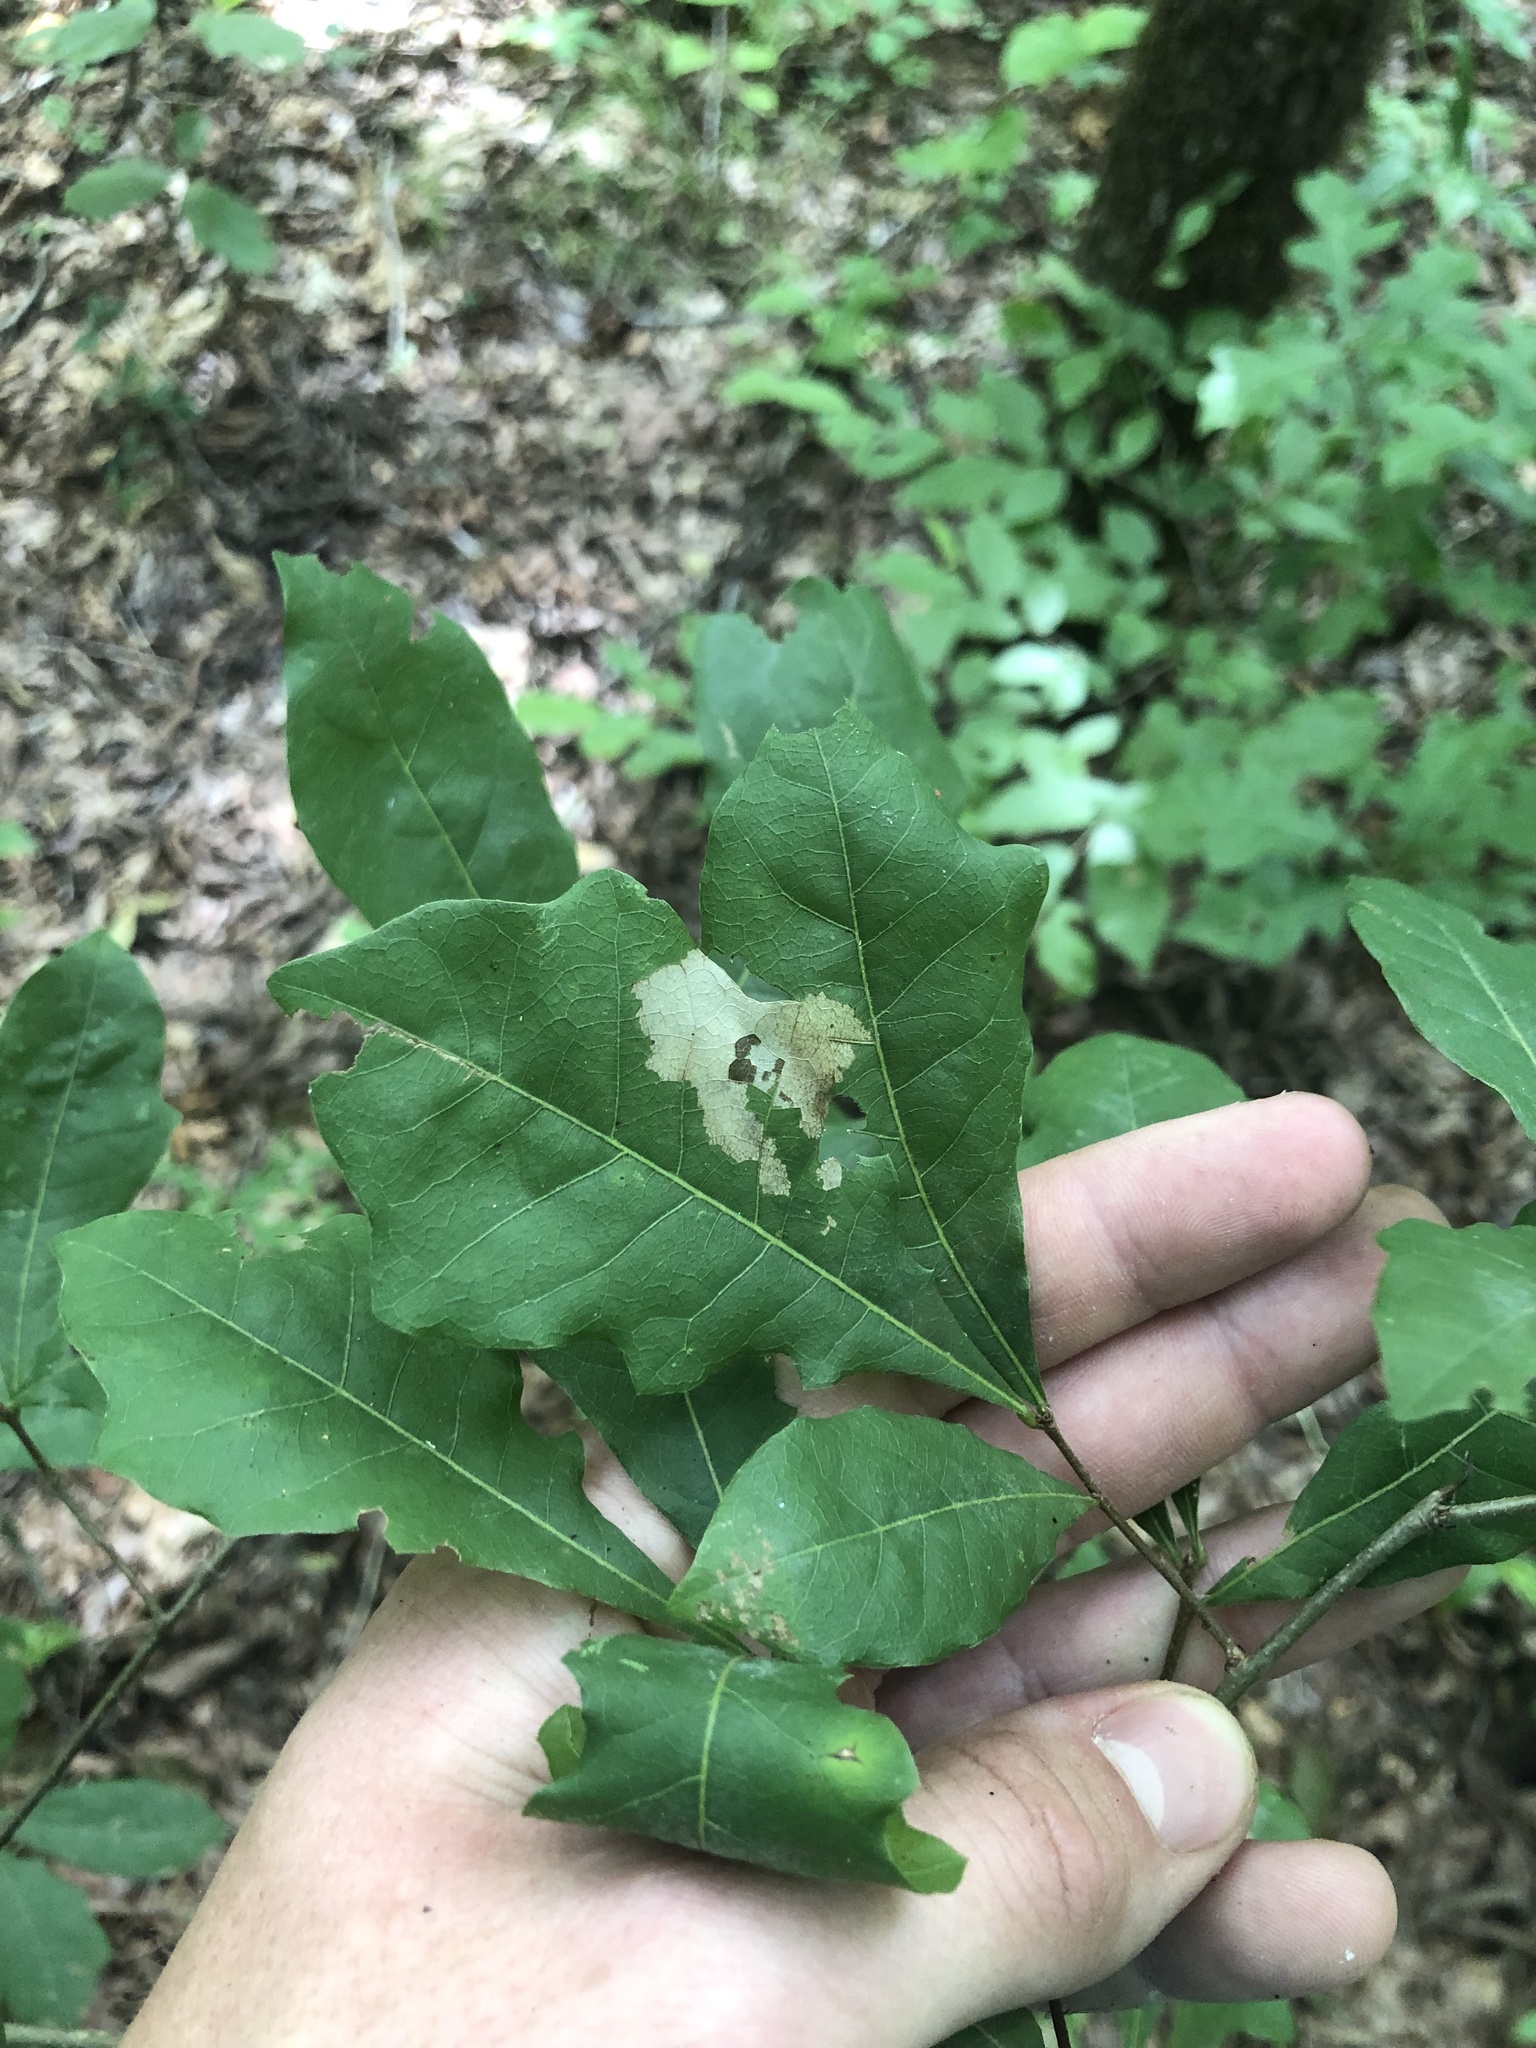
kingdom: Plantae
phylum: Tracheophyta
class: Magnoliopsida
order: Fagales
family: Fagaceae
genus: Quercus
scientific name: Quercus sinuata
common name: Durand oak
